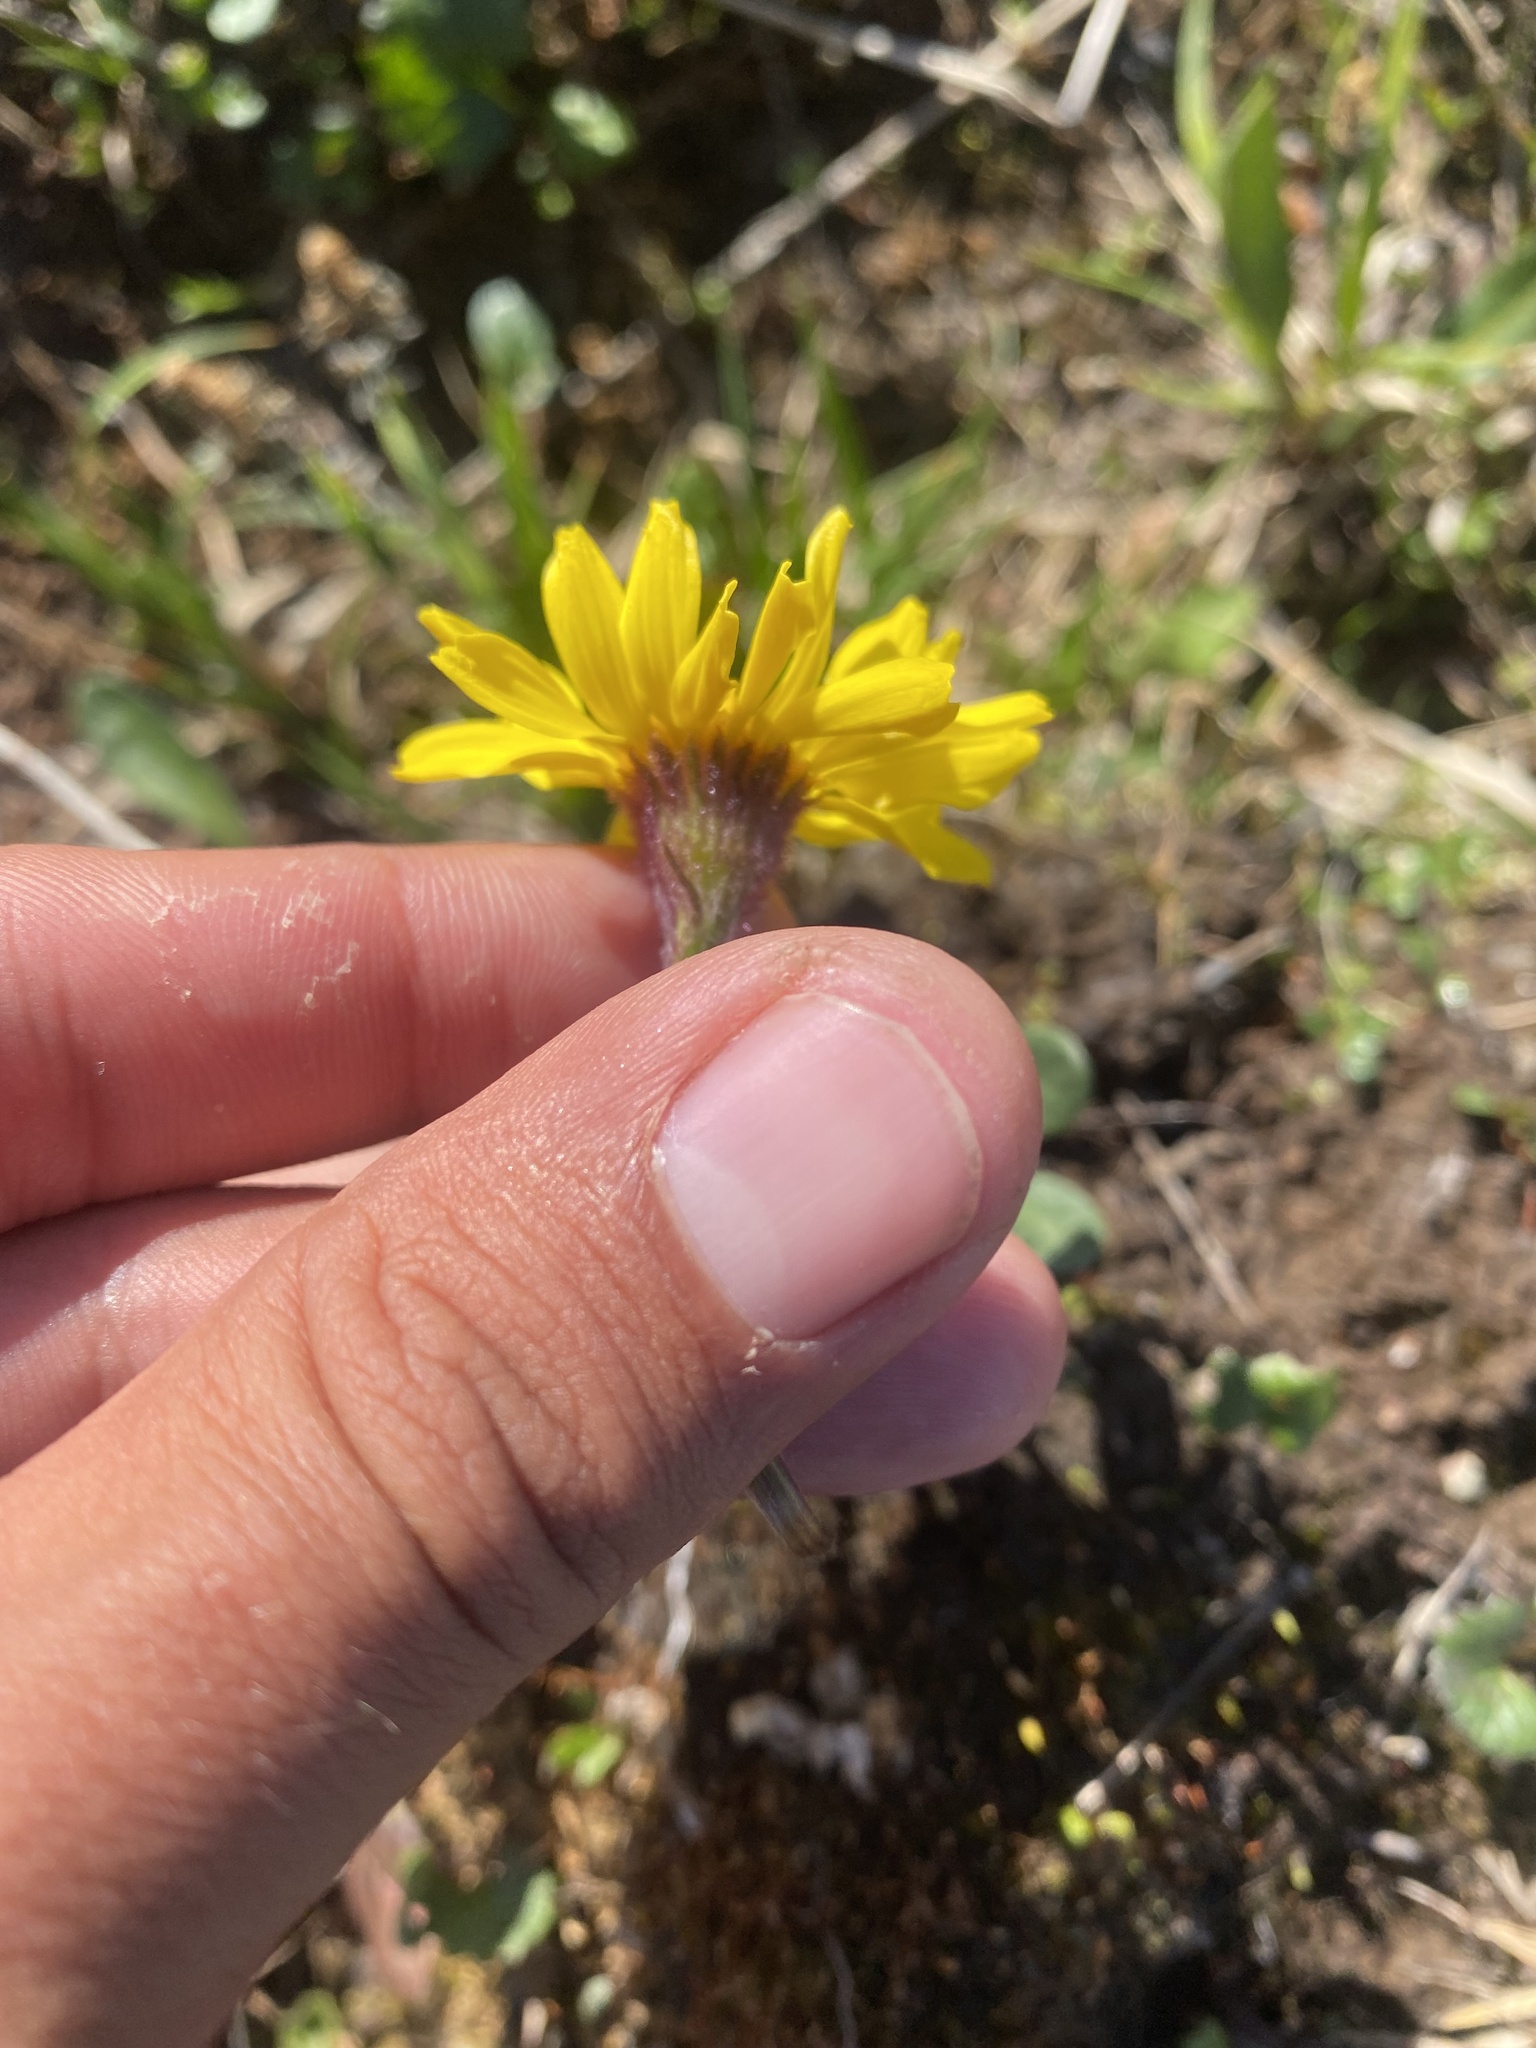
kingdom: Plantae
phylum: Tracheophyta
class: Magnoliopsida
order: Asterales
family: Asteraceae
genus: Tephroseris
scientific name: Tephroseris integrifolia
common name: Field fleawort
